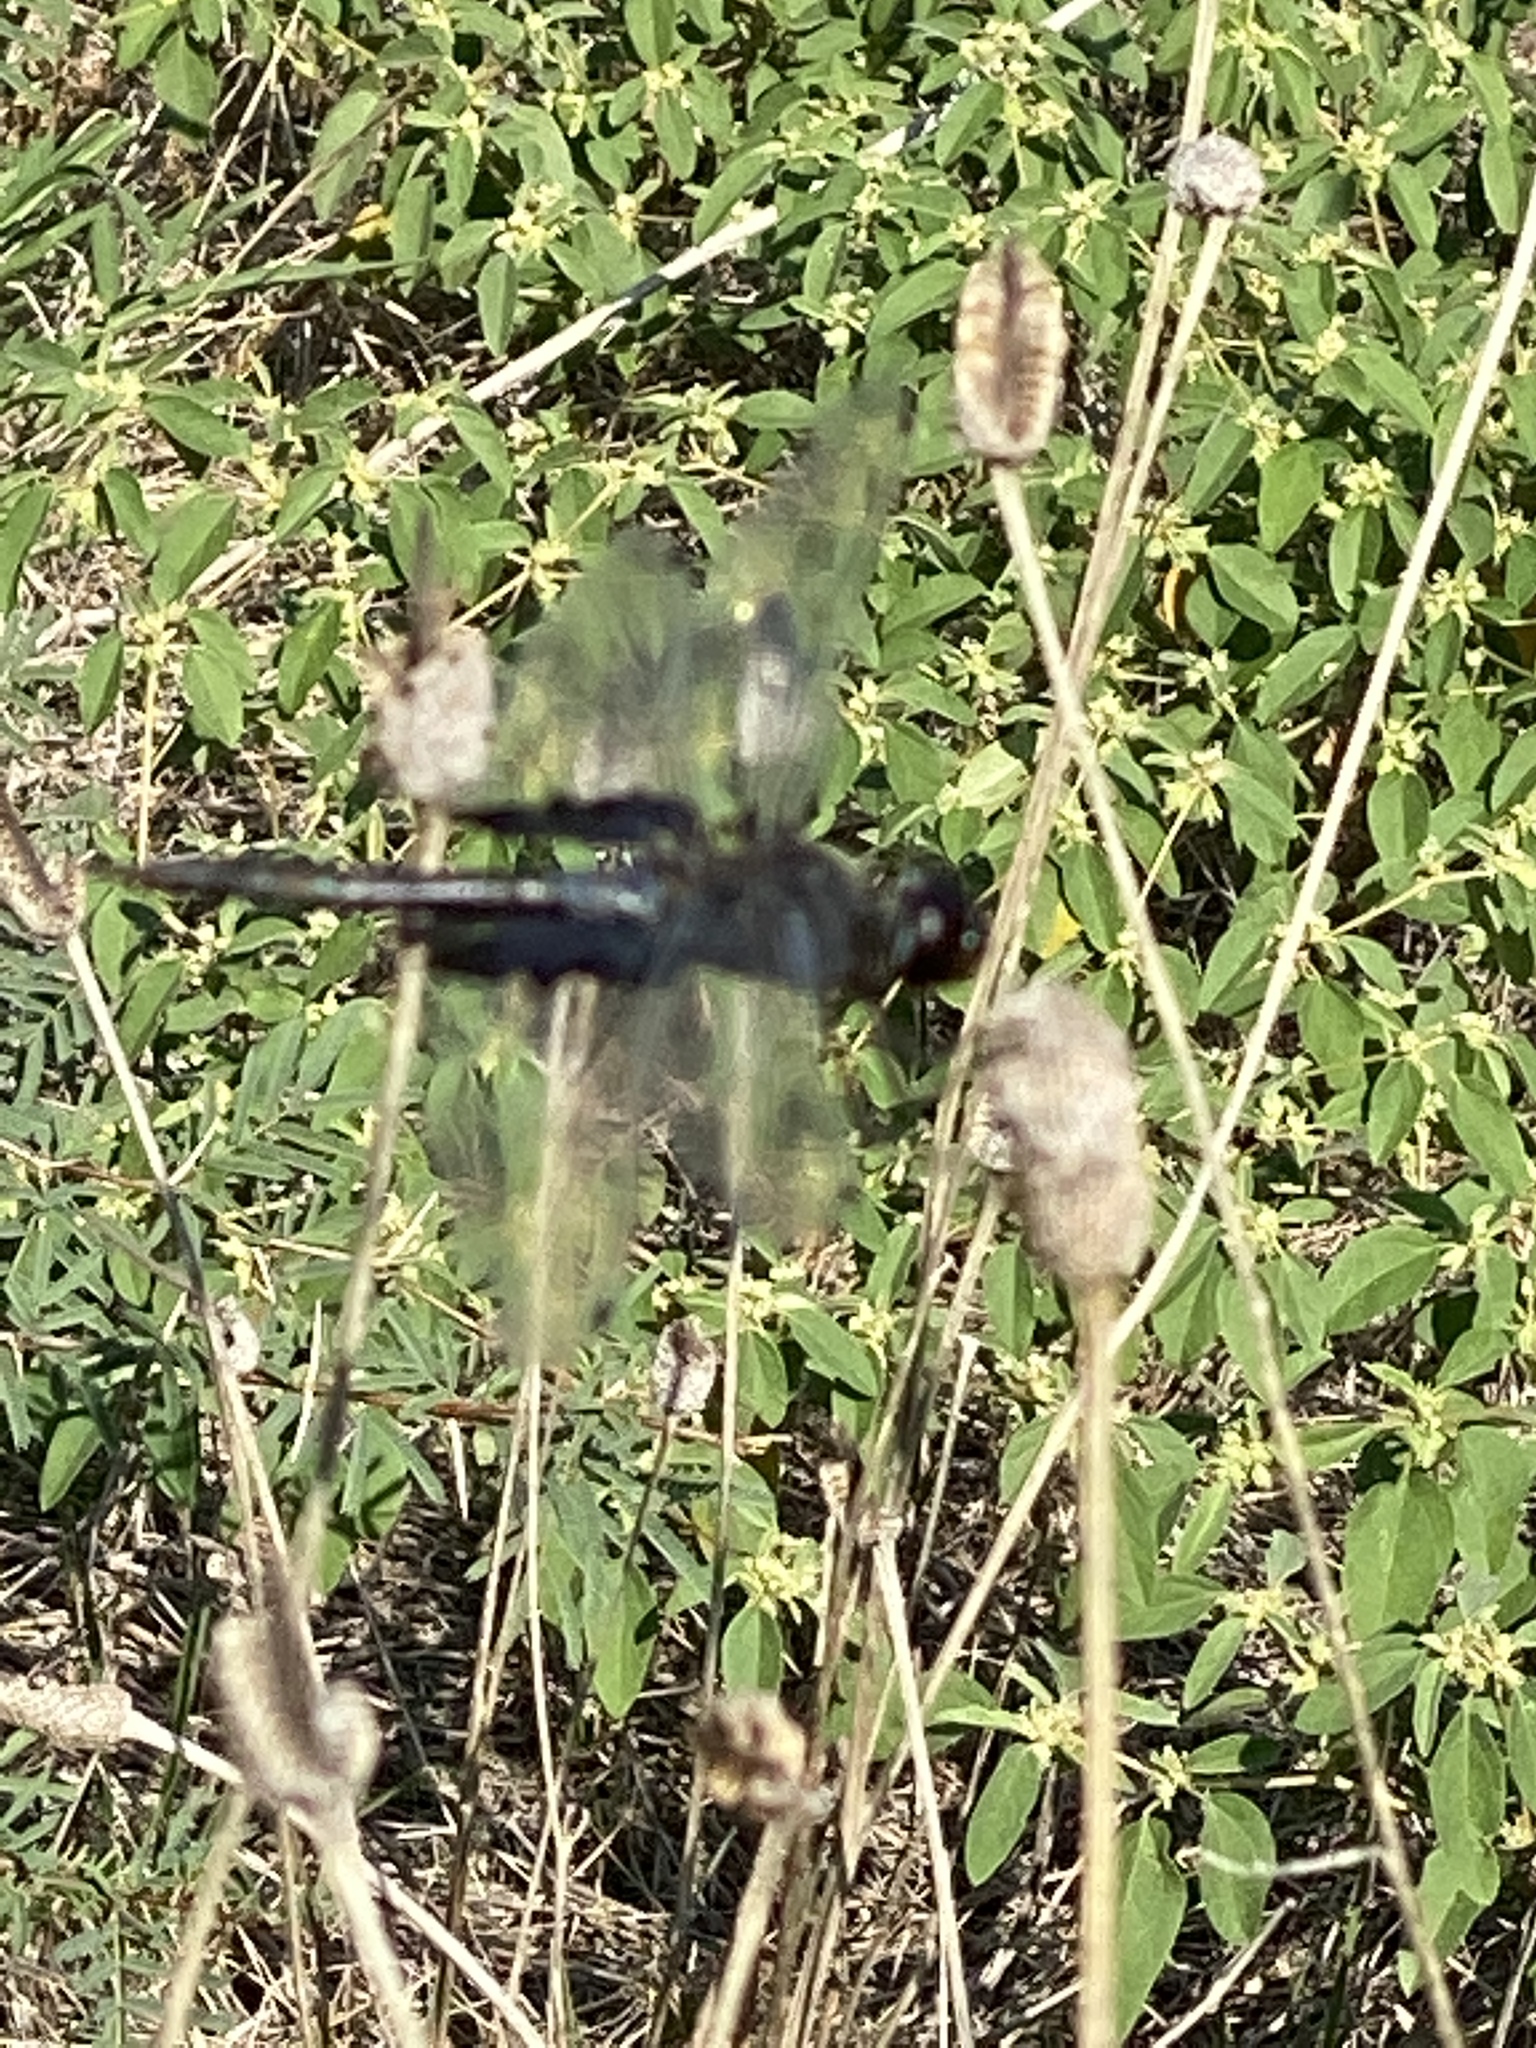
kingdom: Animalia
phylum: Arthropoda
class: Insecta
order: Odonata
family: Libellulidae
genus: Tramea
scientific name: Tramea lacerata
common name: Black saddlebags
